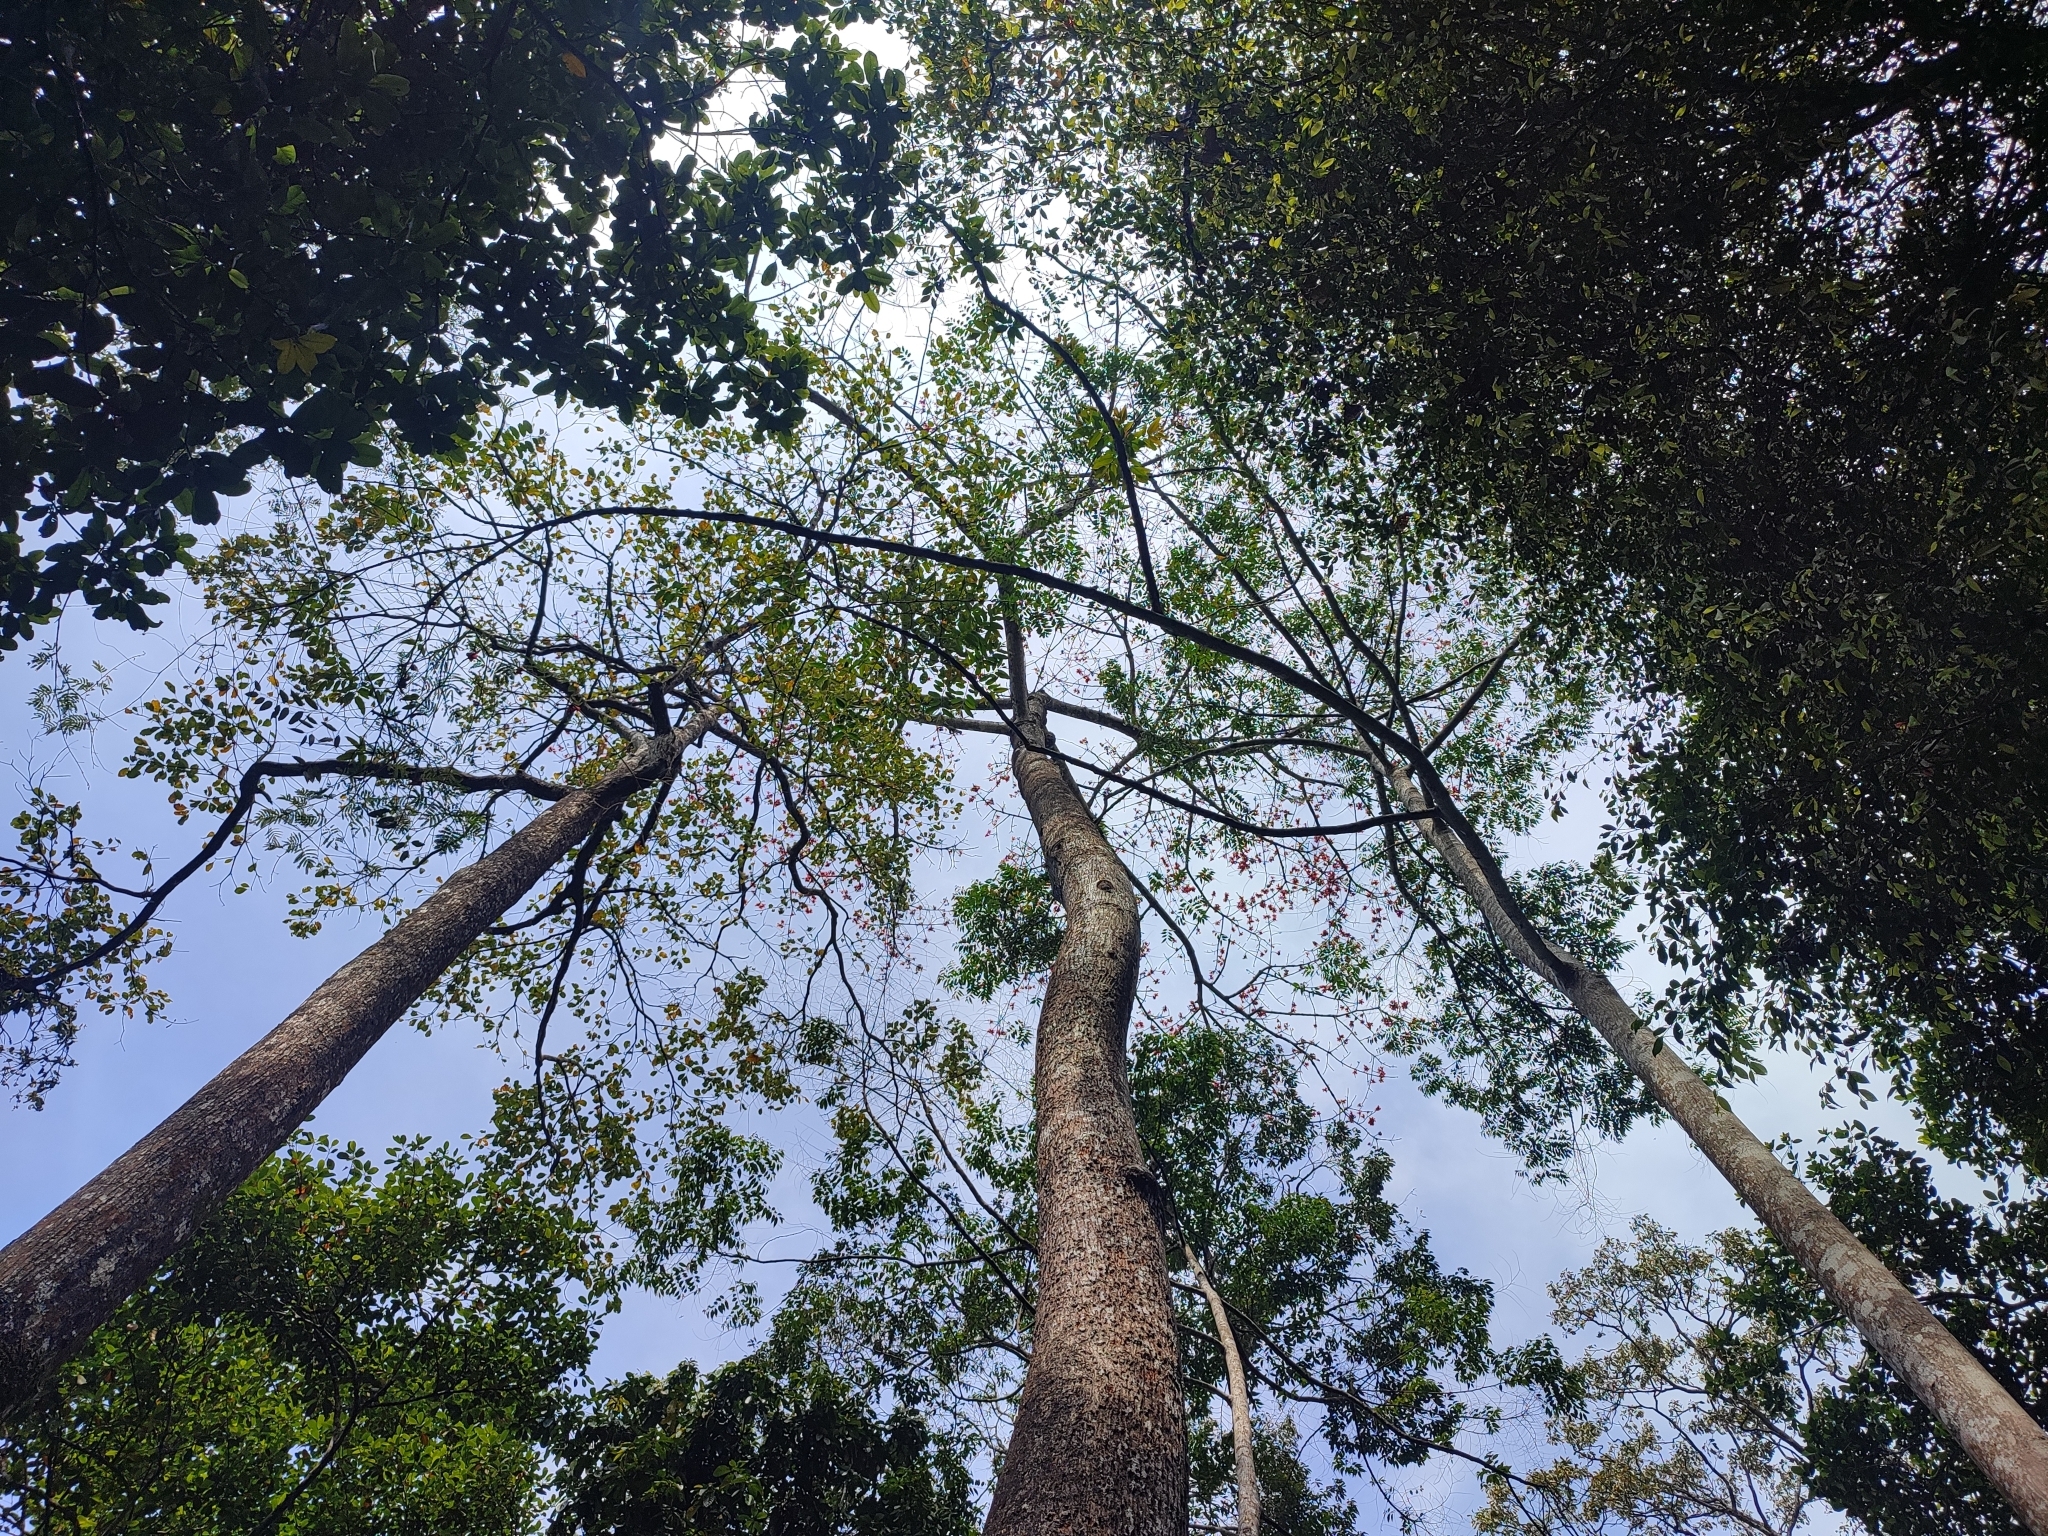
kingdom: Plantae
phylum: Tracheophyta
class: Magnoliopsida
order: Malvales
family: Malvaceae
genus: Bombax
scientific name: Bombax ceiba
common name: Northern-cottonwood
